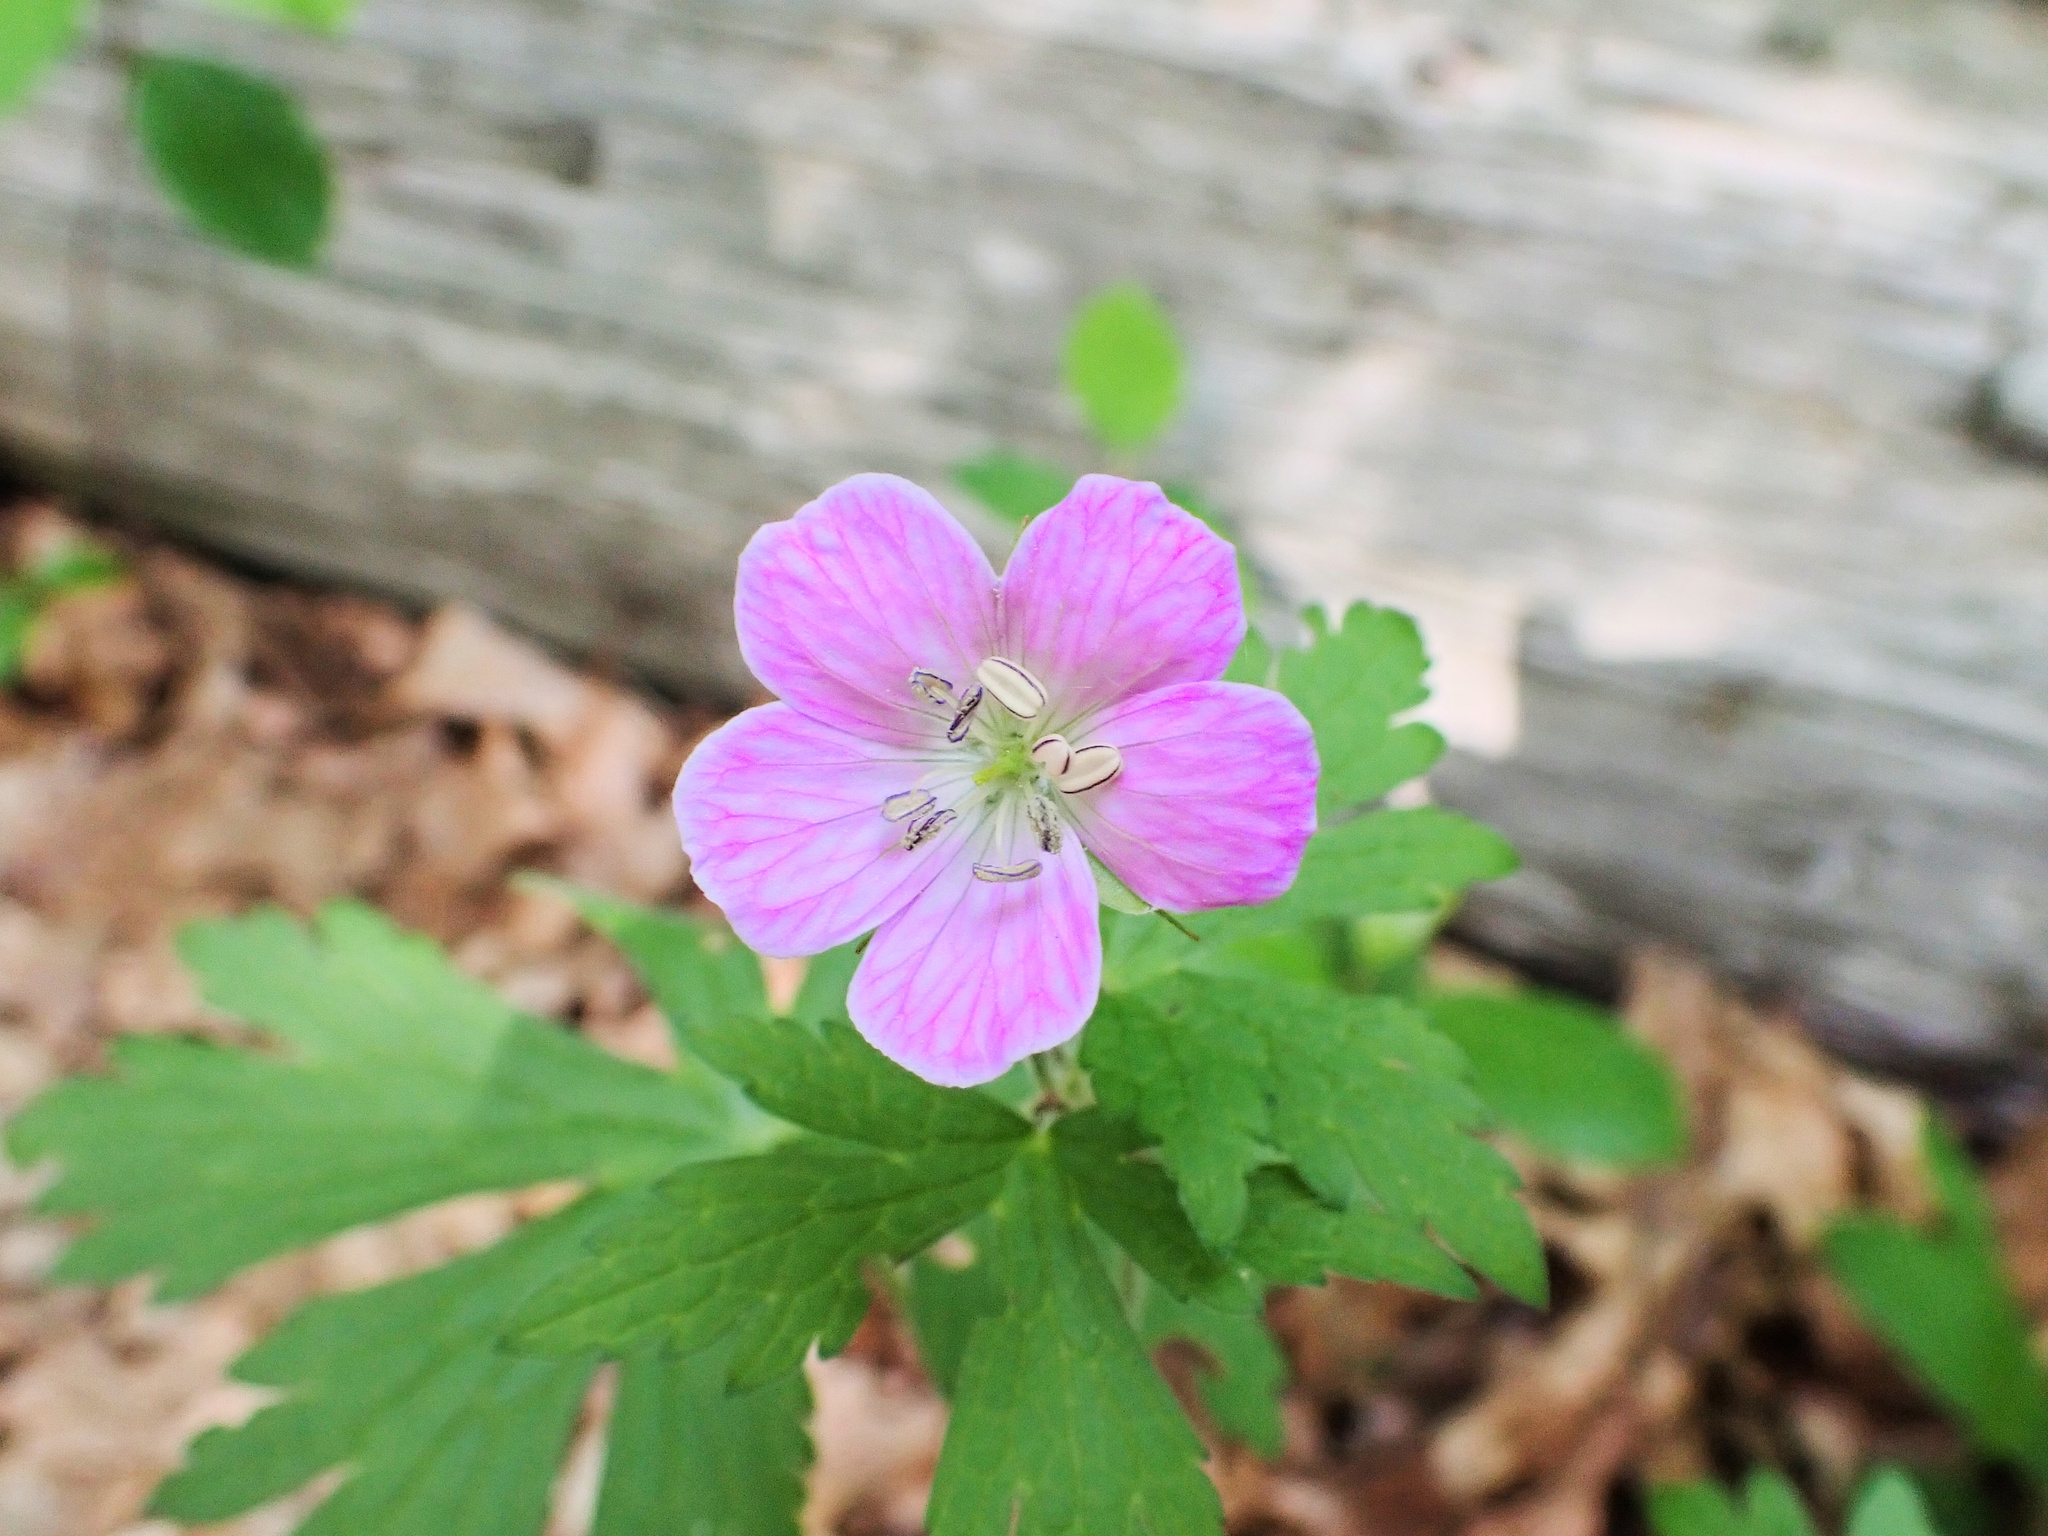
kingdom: Plantae
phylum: Tracheophyta
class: Magnoliopsida
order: Geraniales
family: Geraniaceae
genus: Geranium
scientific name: Geranium maculatum
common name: Spotted geranium
